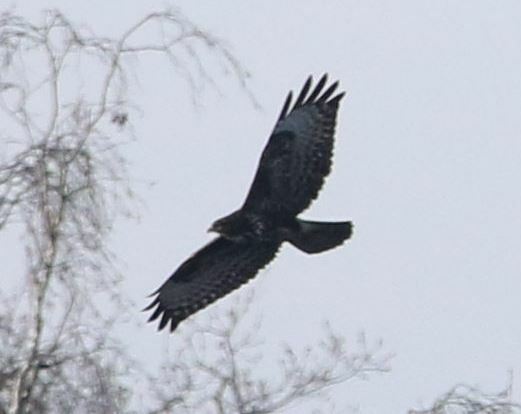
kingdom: Animalia
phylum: Chordata
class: Aves
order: Accipitriformes
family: Accipitridae
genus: Buteo
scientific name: Buteo buteo
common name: Common buzzard
